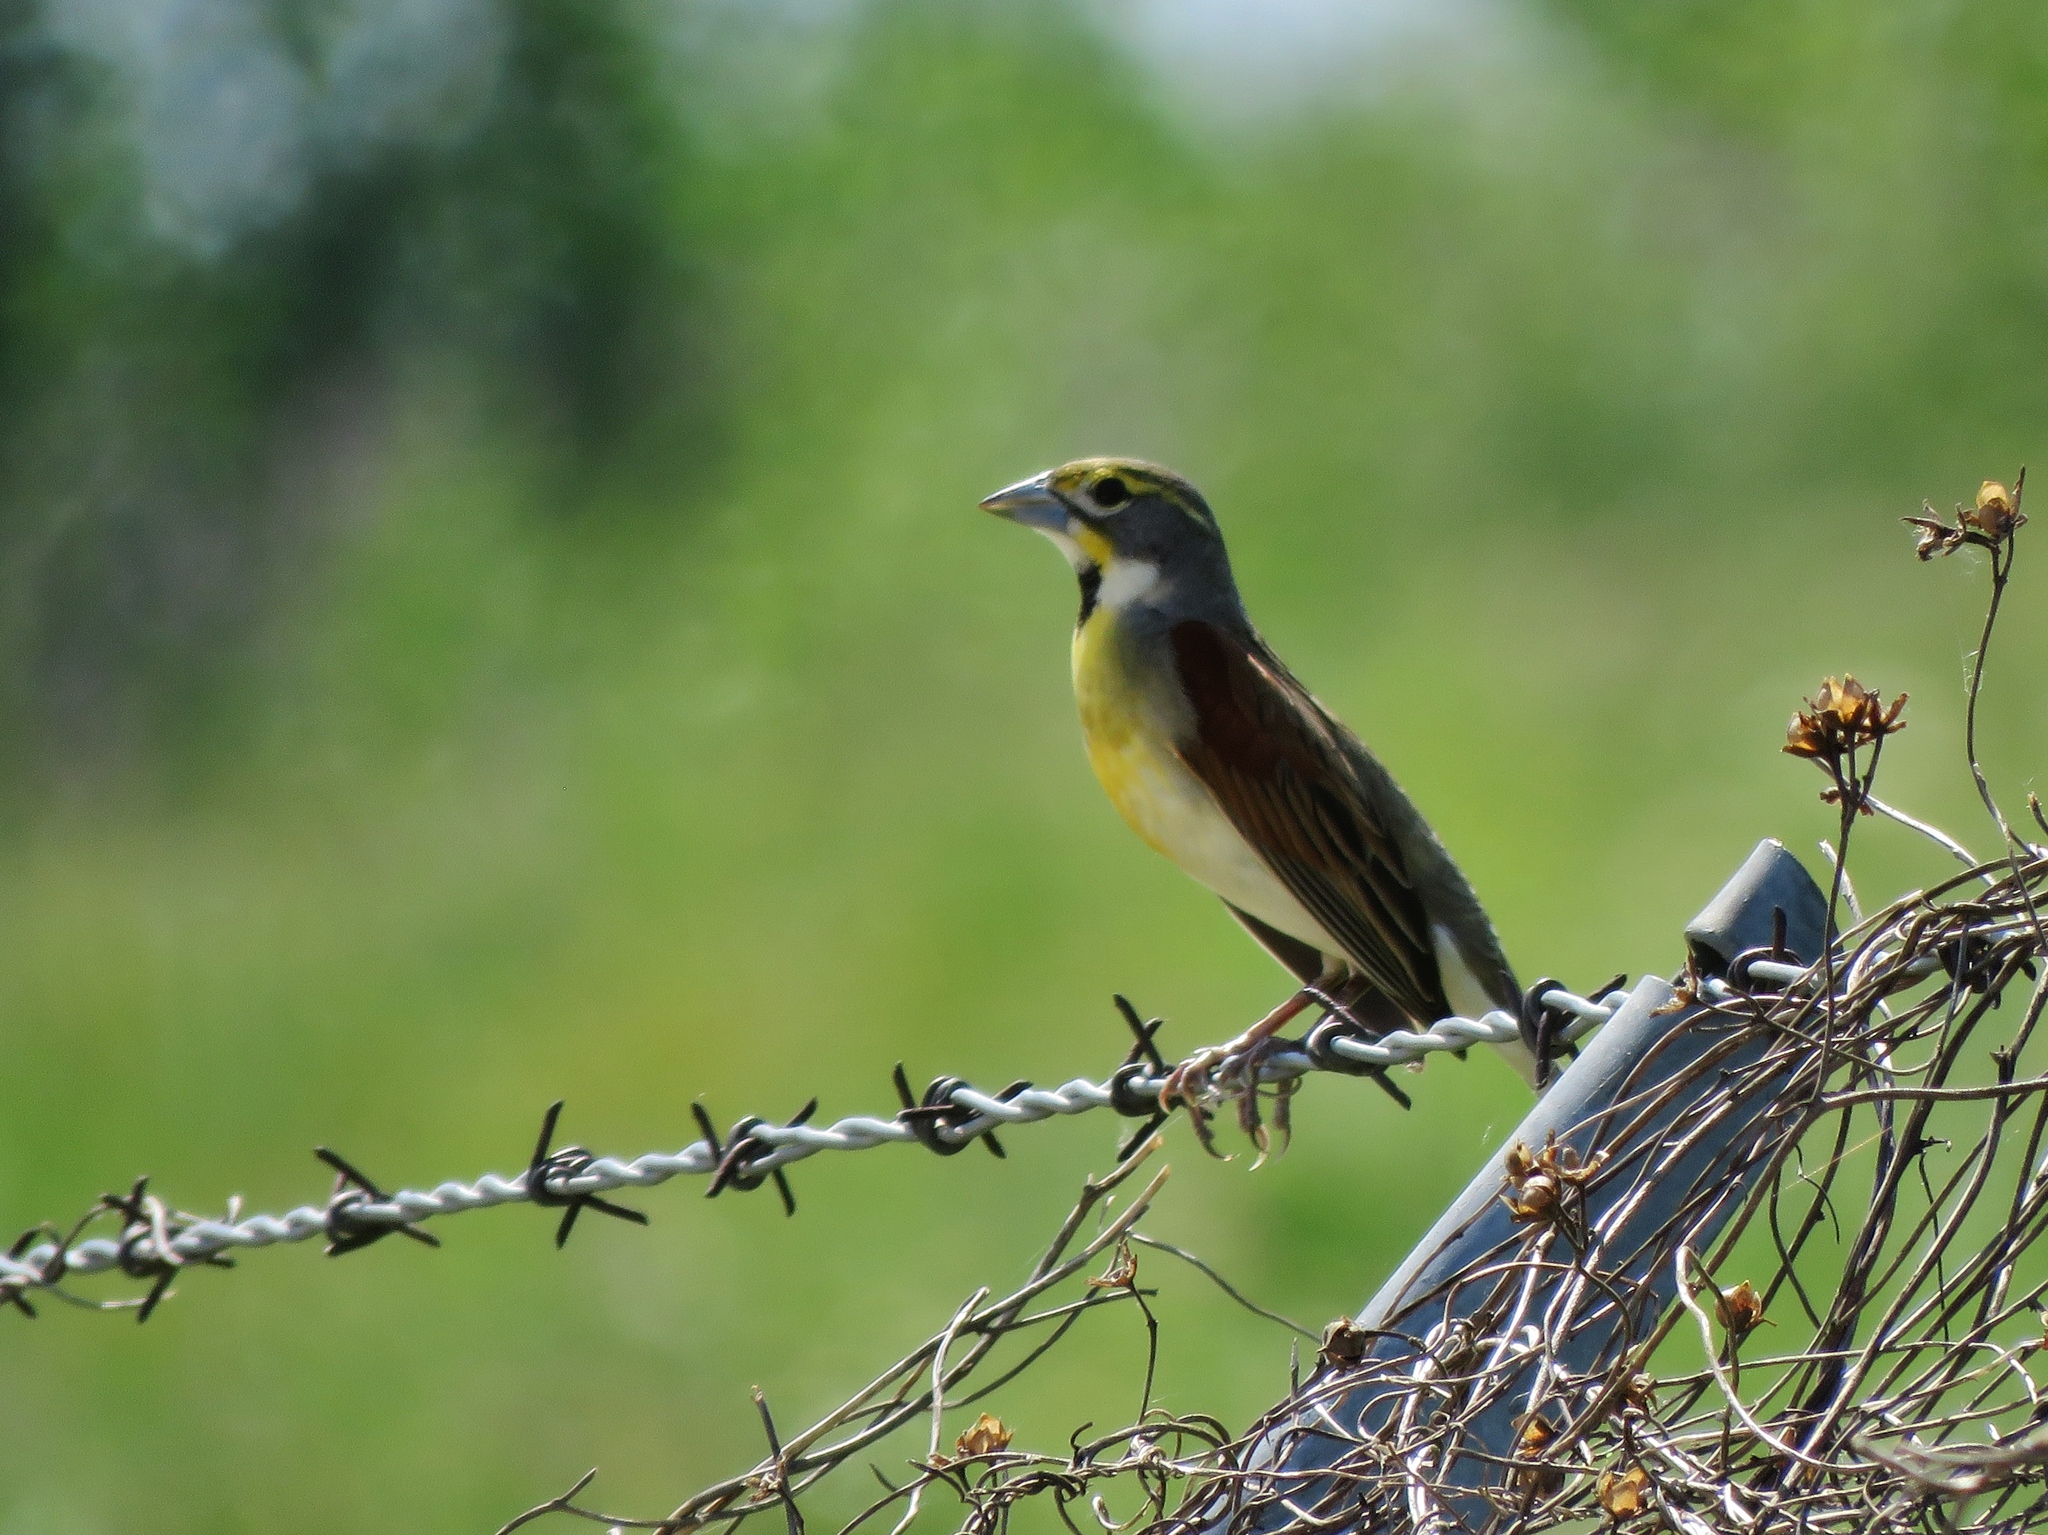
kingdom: Animalia
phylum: Chordata
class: Aves
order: Passeriformes
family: Cardinalidae
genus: Spiza
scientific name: Spiza americana
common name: Dickcissel
